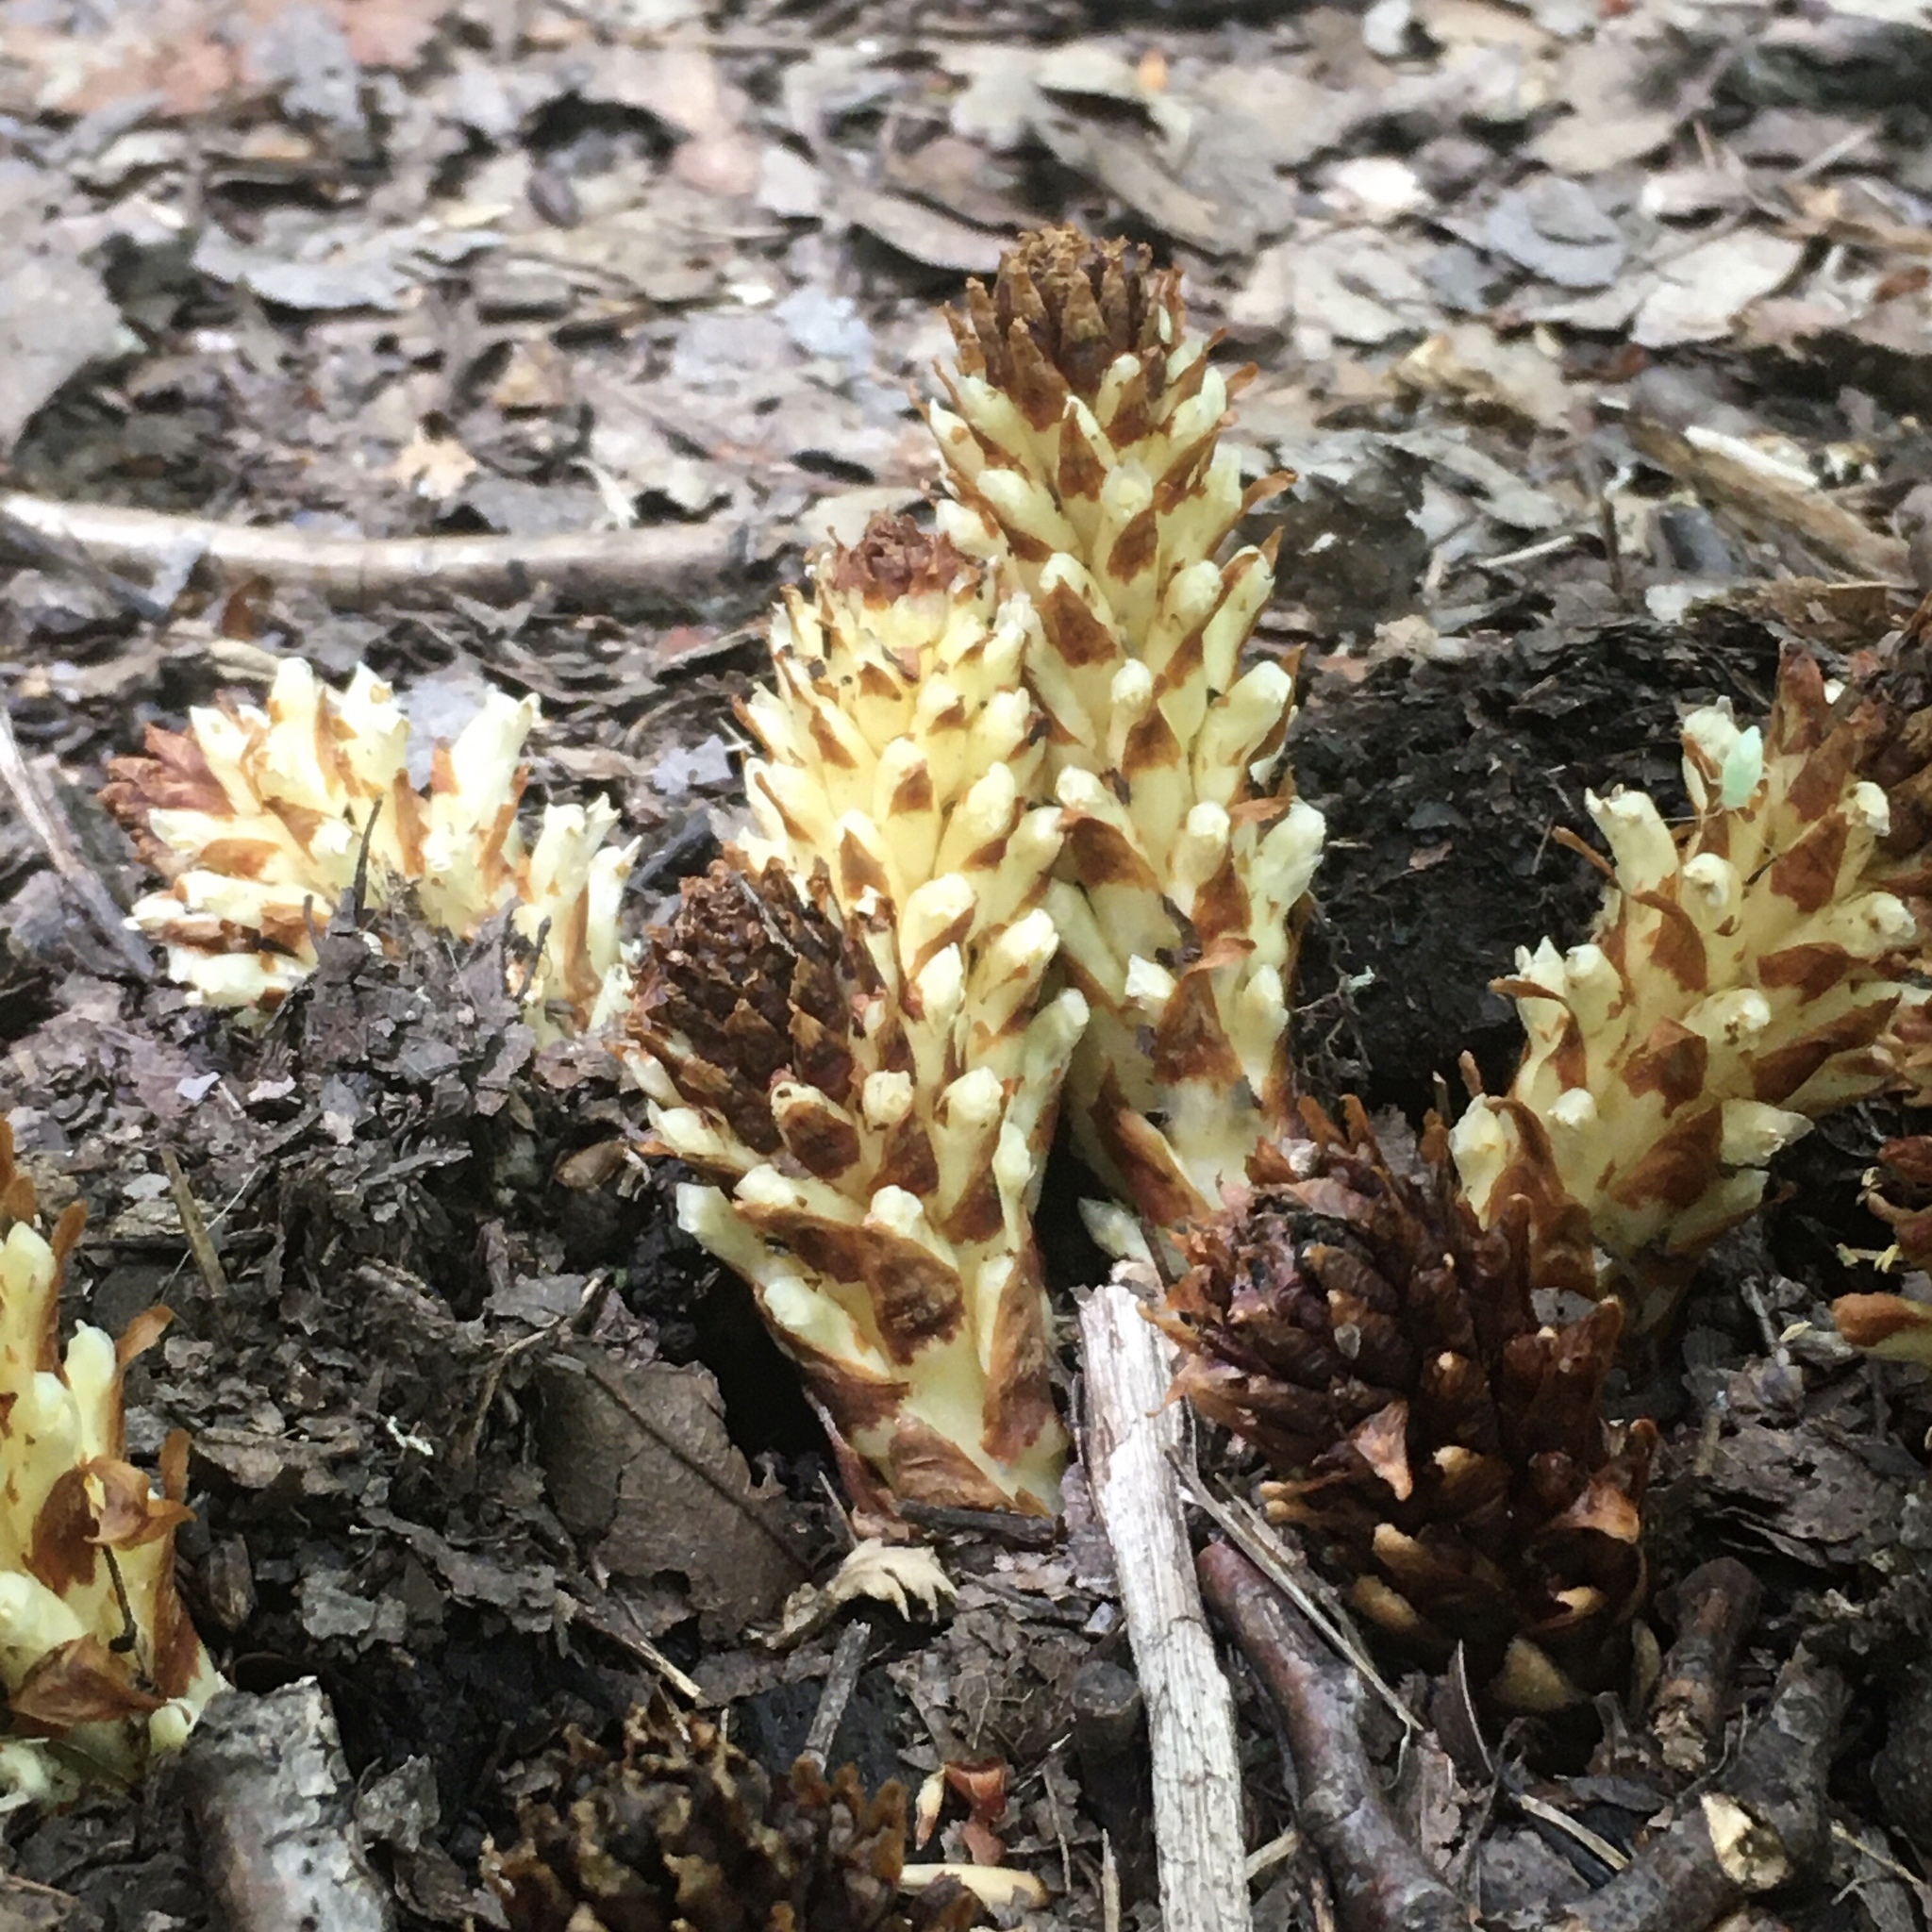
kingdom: Plantae
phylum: Tracheophyta
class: Magnoliopsida
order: Lamiales
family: Orobanchaceae
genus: Conopholis
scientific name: Conopholis americana
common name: American cancer-root
